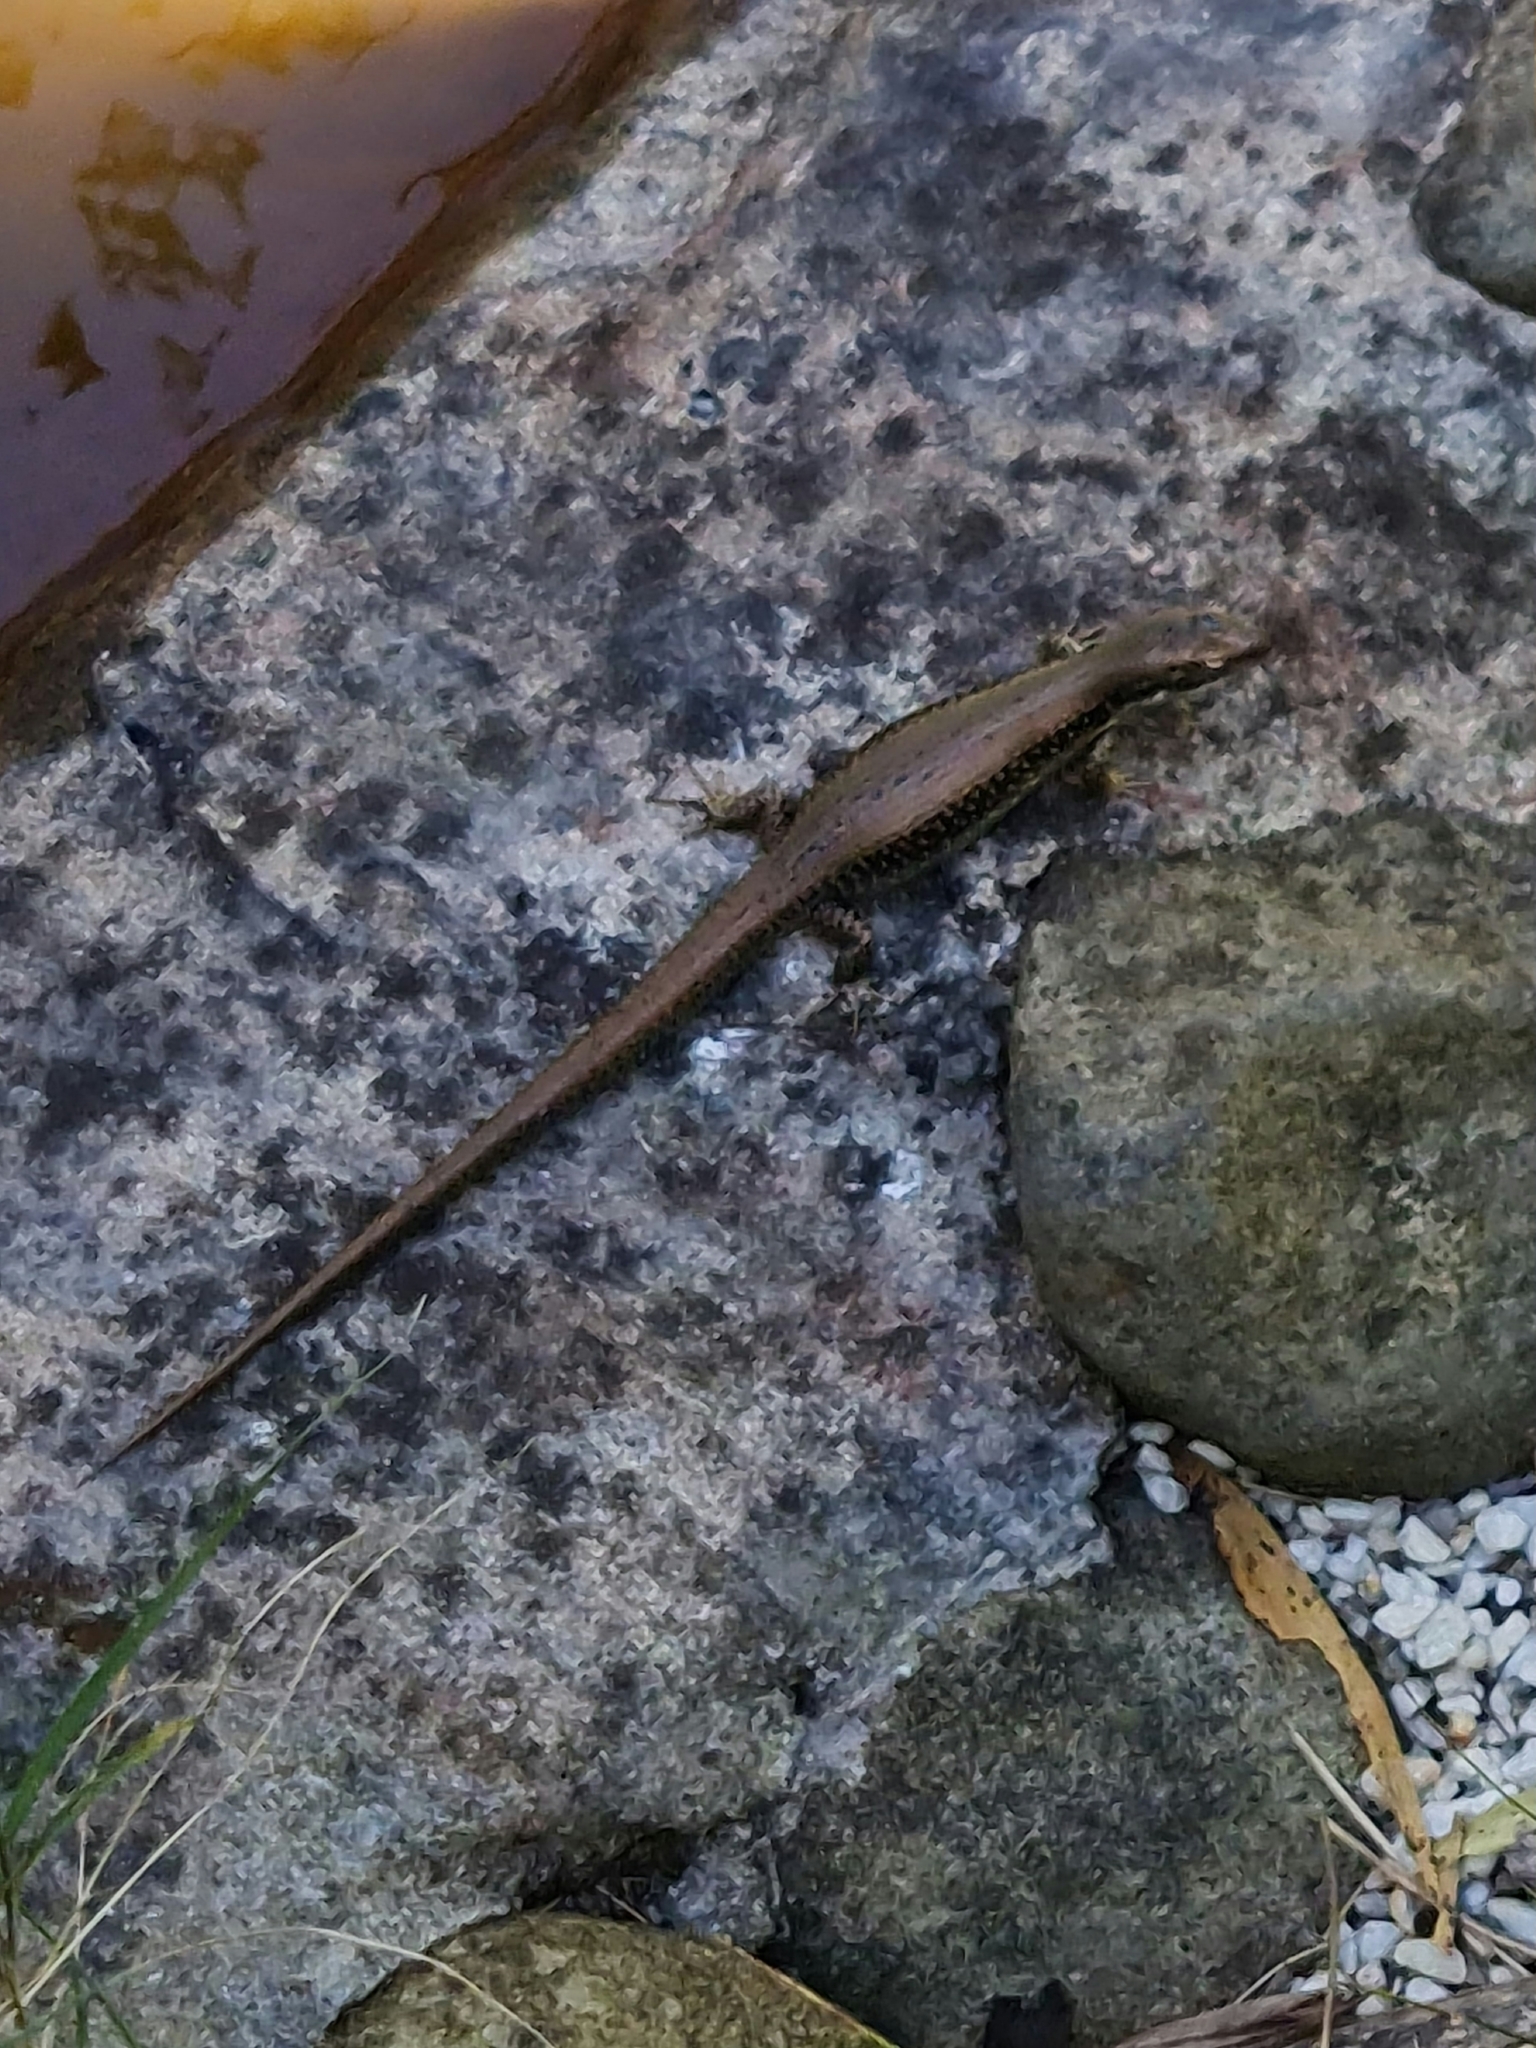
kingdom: Animalia
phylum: Chordata
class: Squamata
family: Scincidae
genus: Eulamprus
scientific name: Eulamprus tympanum
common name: Cool-temperate water-skink
